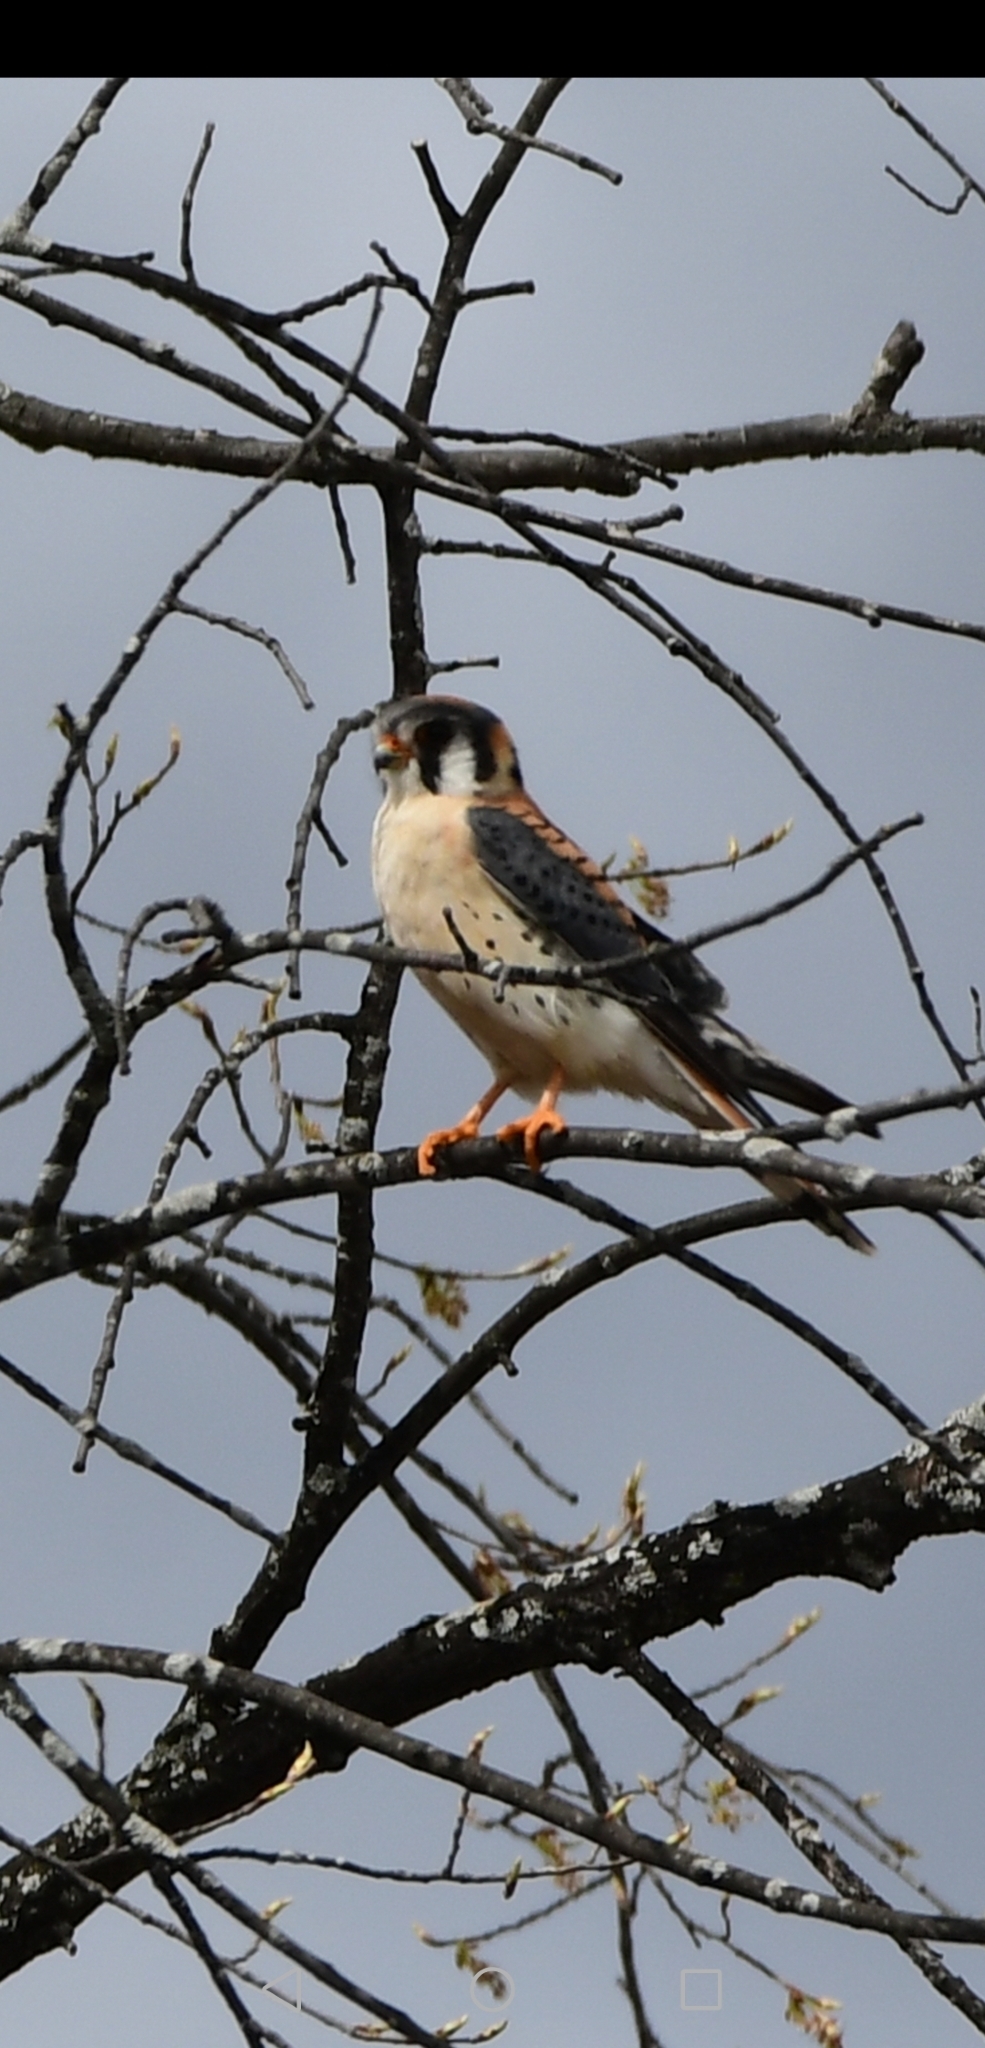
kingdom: Animalia
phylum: Chordata
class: Aves
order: Falconiformes
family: Falconidae
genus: Falco
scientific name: Falco sparverius
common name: American kestrel
